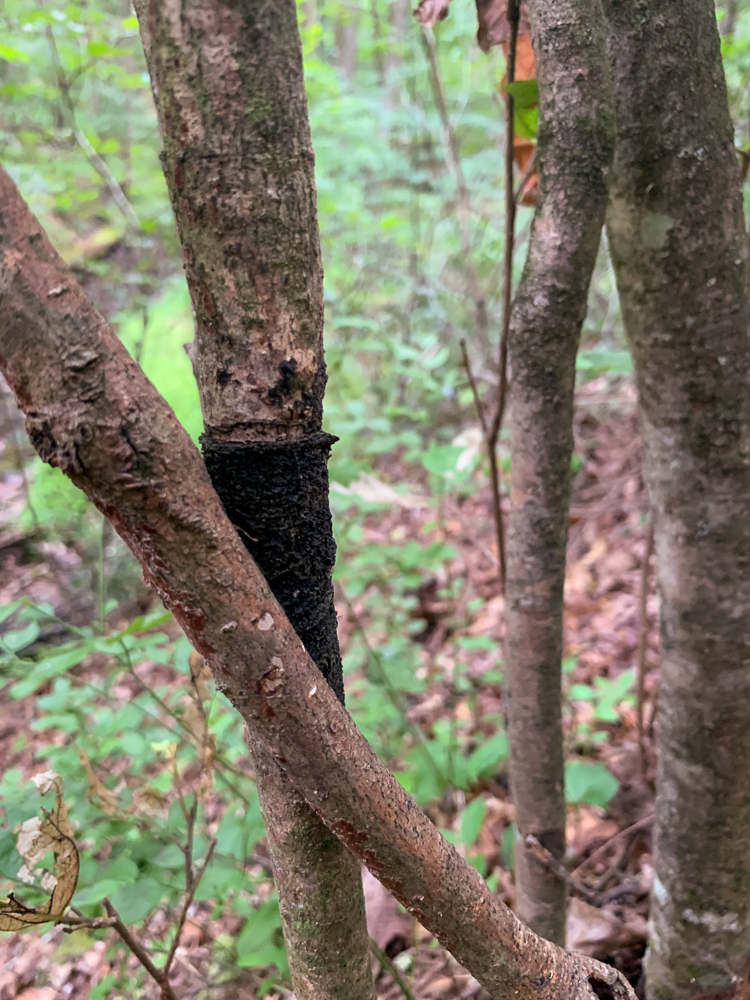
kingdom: Fungi
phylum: Basidiomycota
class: Agaricomycetes
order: Hymenochaetales
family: Hymenochaetaceae
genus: Hydnoporia
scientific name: Hydnoporia diffissa
